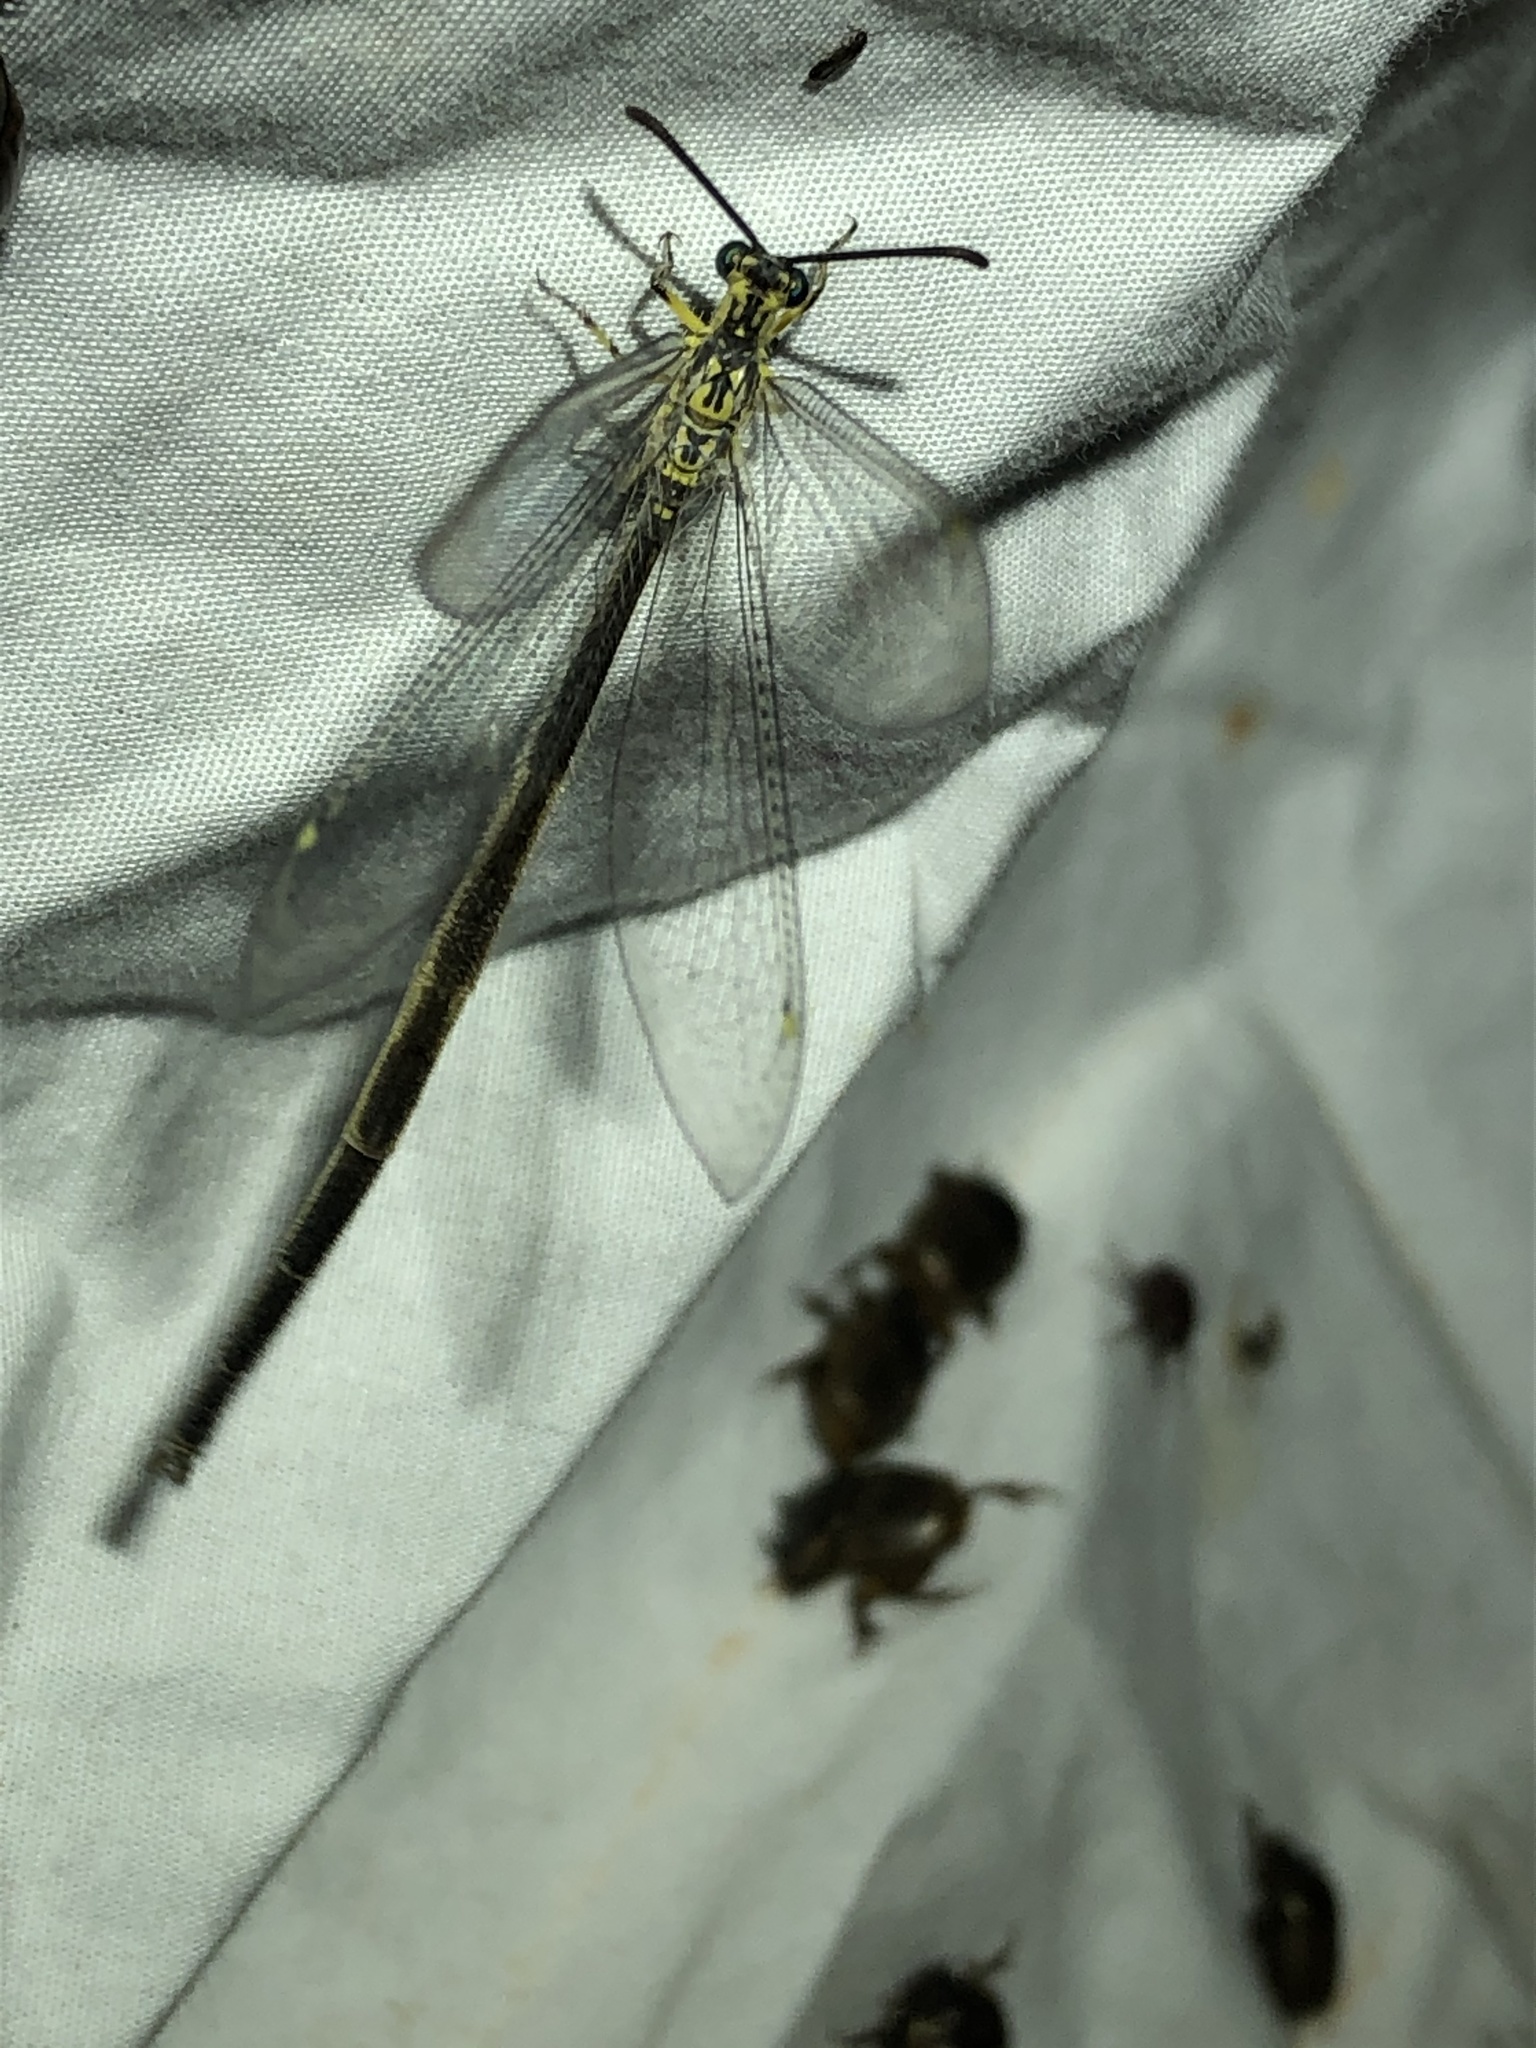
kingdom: Animalia
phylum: Arthropoda
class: Insecta
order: Neuroptera
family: Myrmeleontidae
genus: Scotoleon
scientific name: Scotoleon nigrilabris
